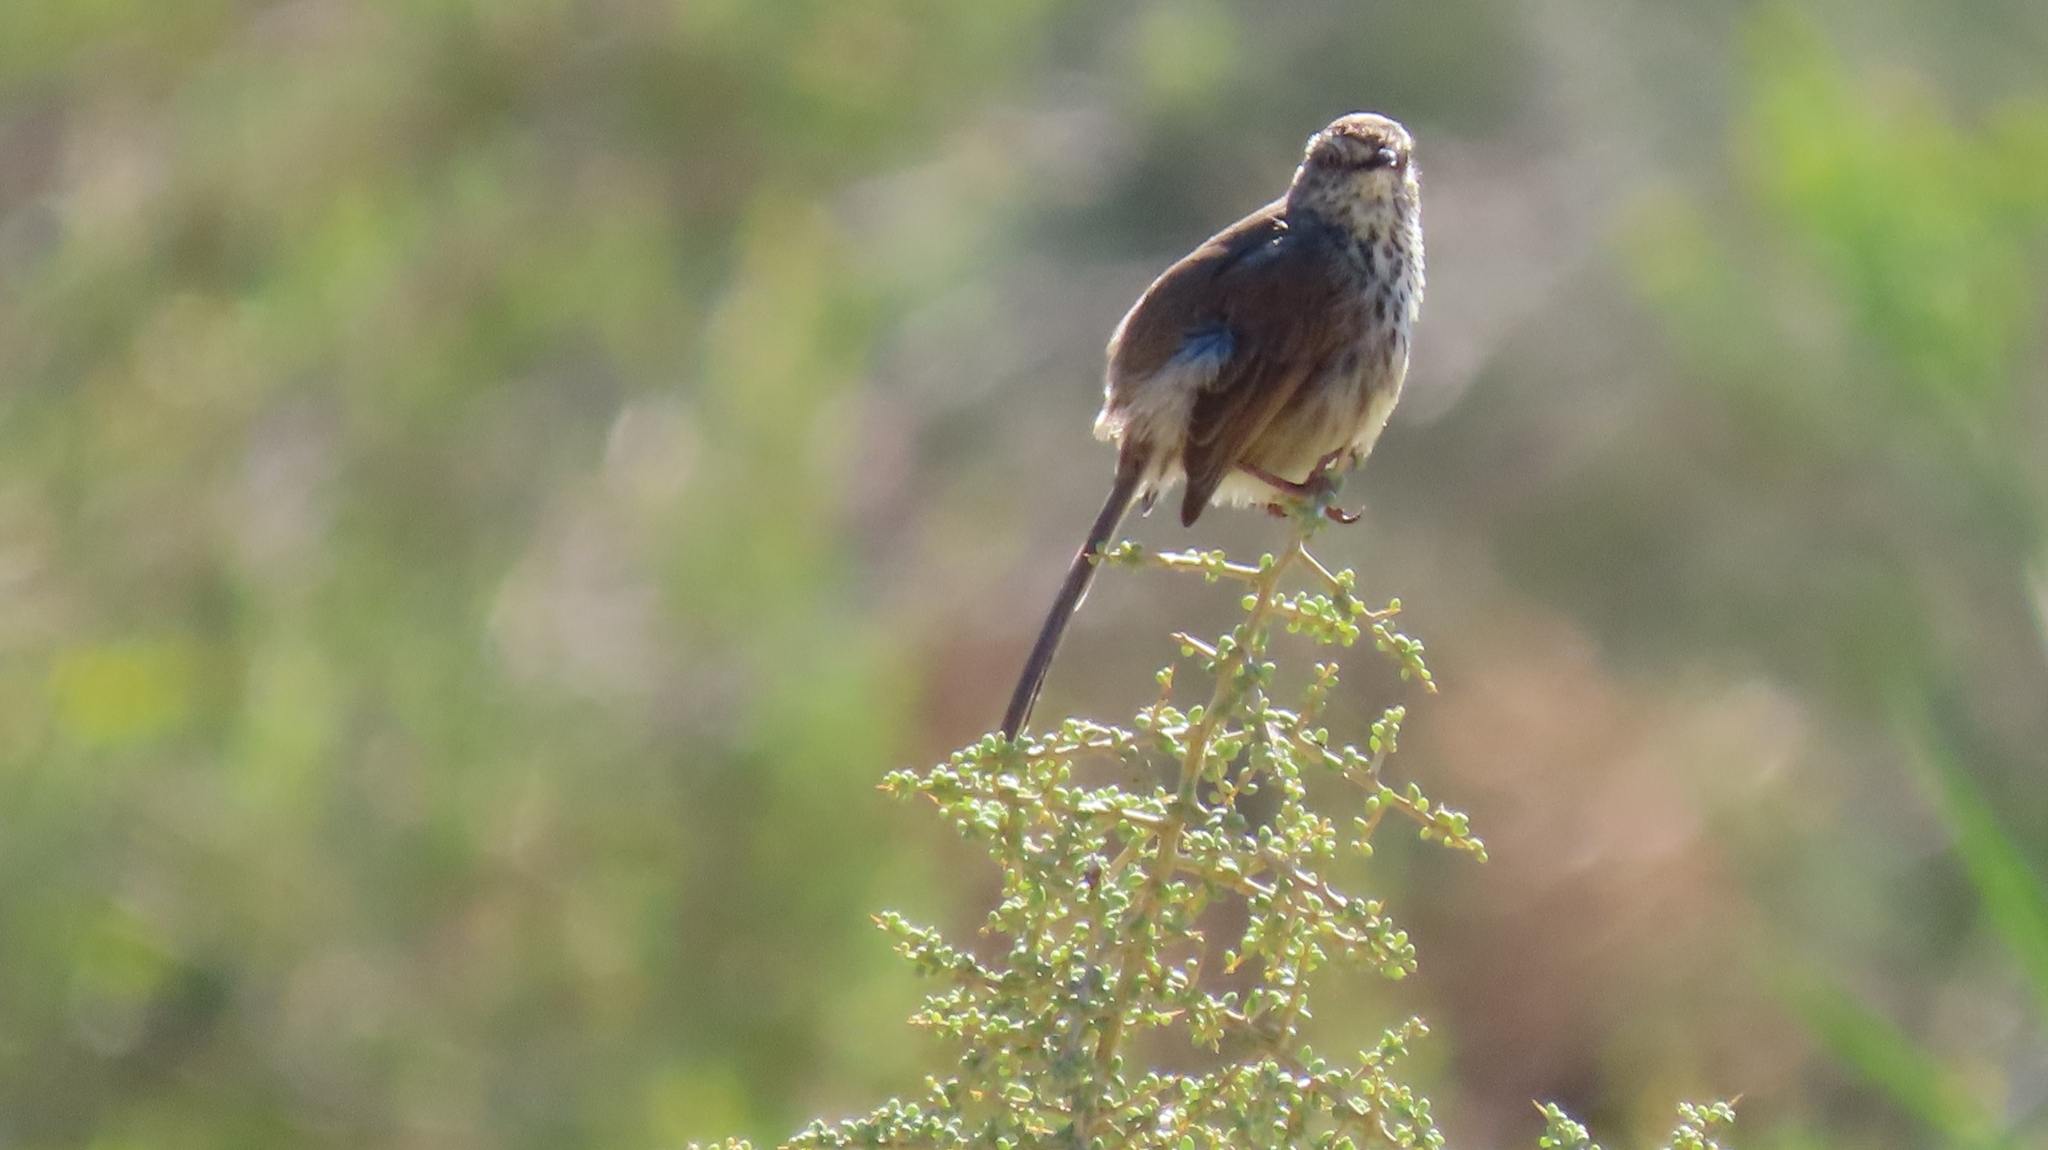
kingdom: Animalia
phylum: Chordata
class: Aves
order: Passeriformes
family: Cisticolidae
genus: Prinia
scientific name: Prinia maculosa
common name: Karoo prinia
